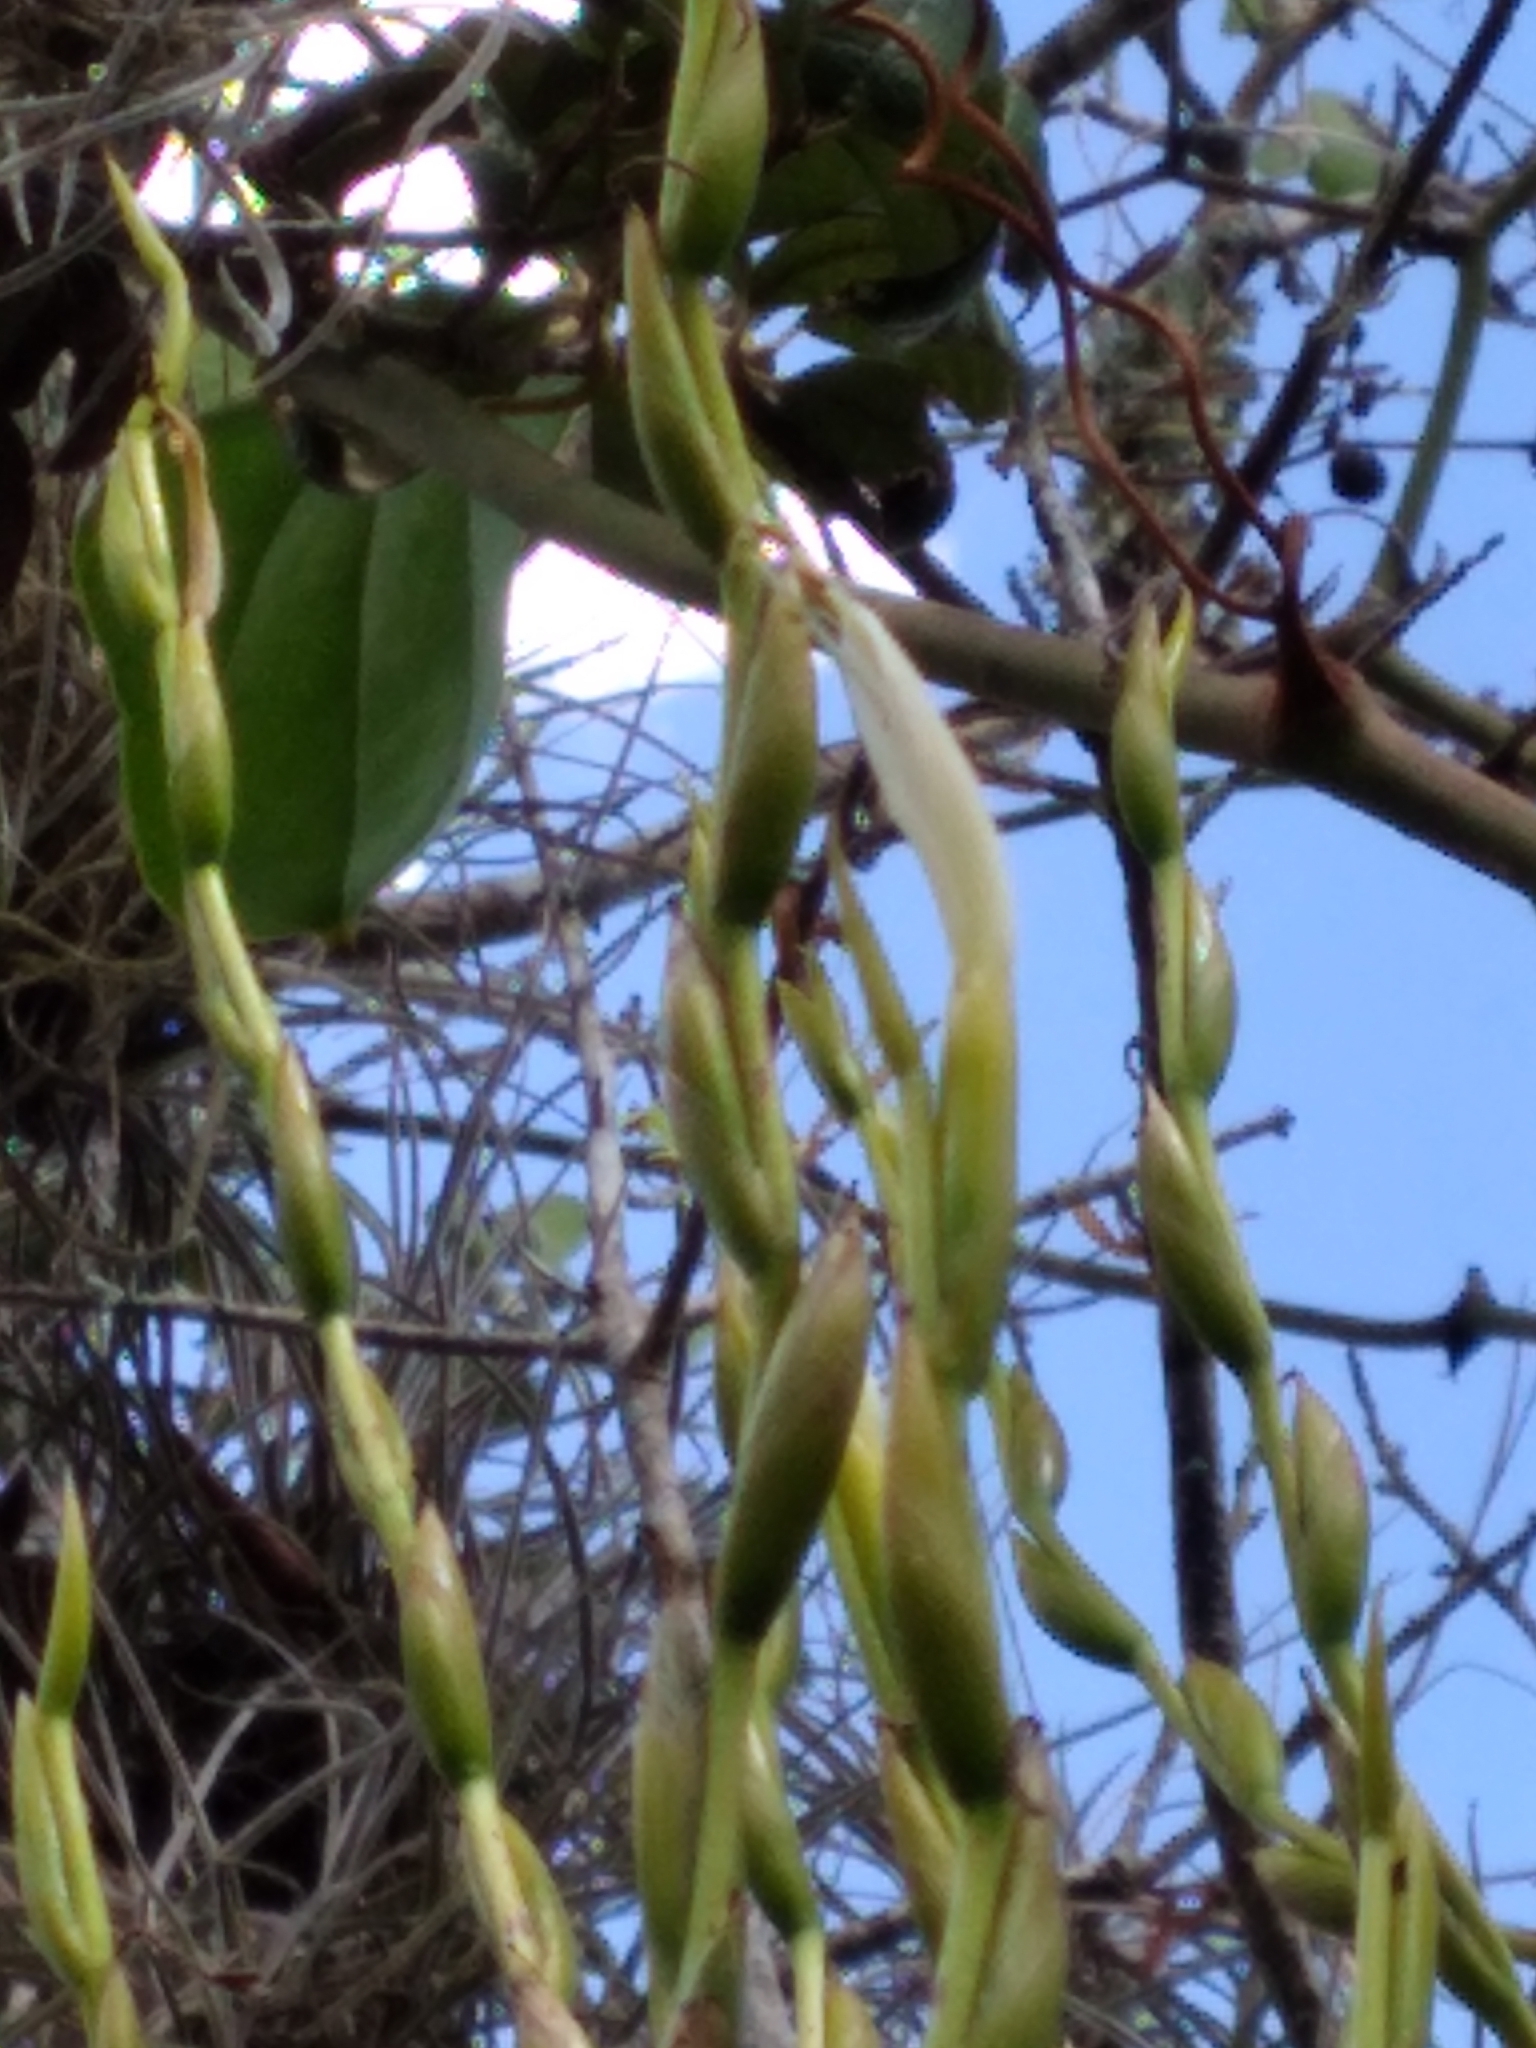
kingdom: Plantae
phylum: Tracheophyta
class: Liliopsida
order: Poales
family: Bromeliaceae
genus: Tillandsia
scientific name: Tillandsia utriculata
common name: Wild pine
